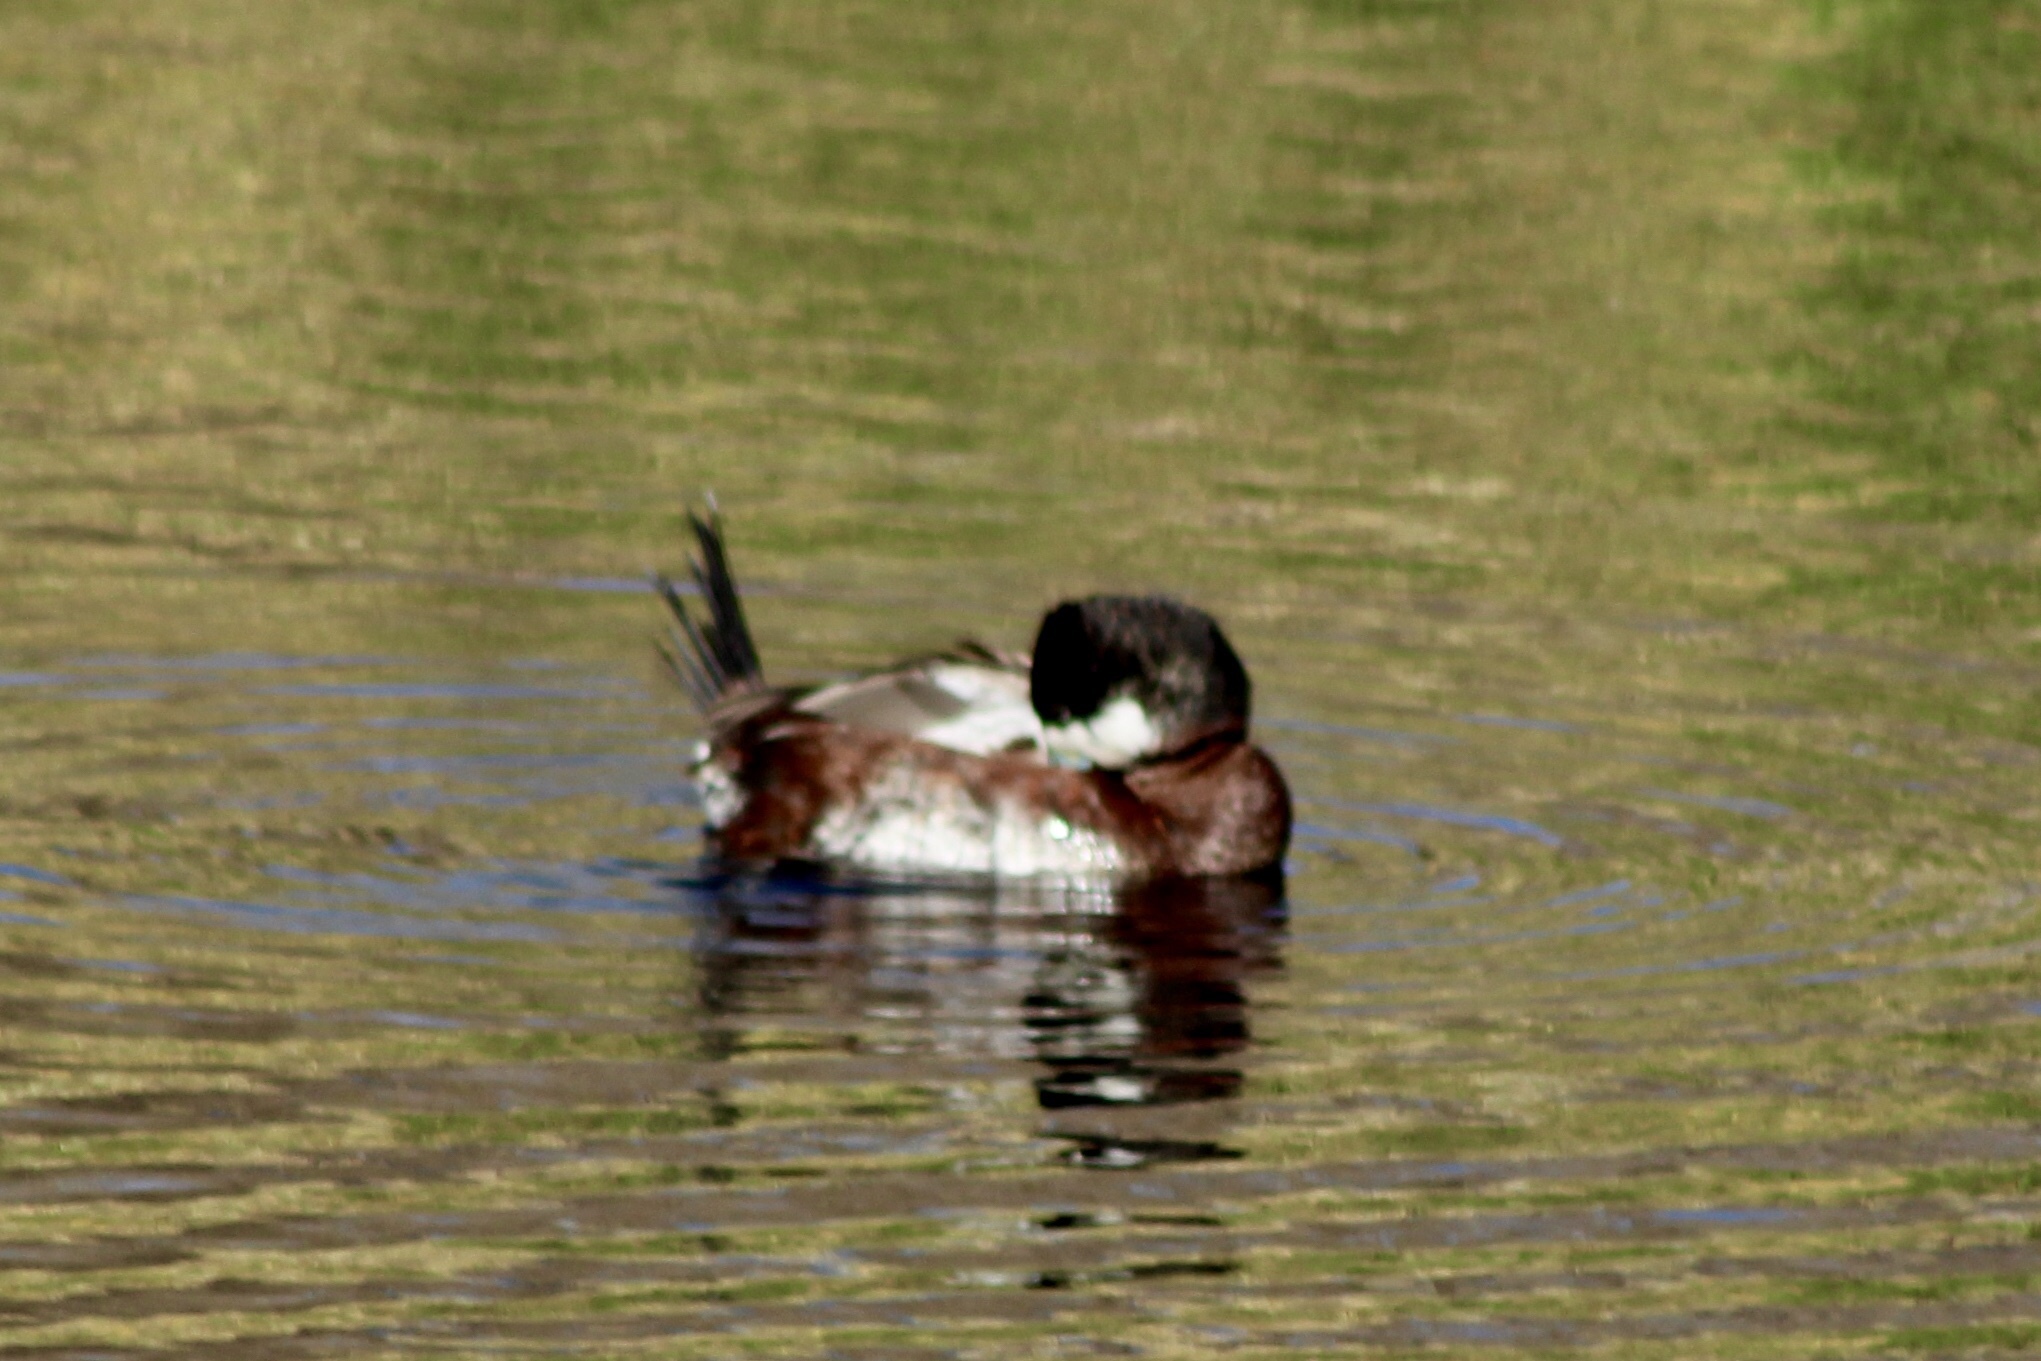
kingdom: Animalia
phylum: Chordata
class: Aves
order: Anseriformes
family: Anatidae
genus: Oxyura
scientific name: Oxyura jamaicensis
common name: Ruddy duck
